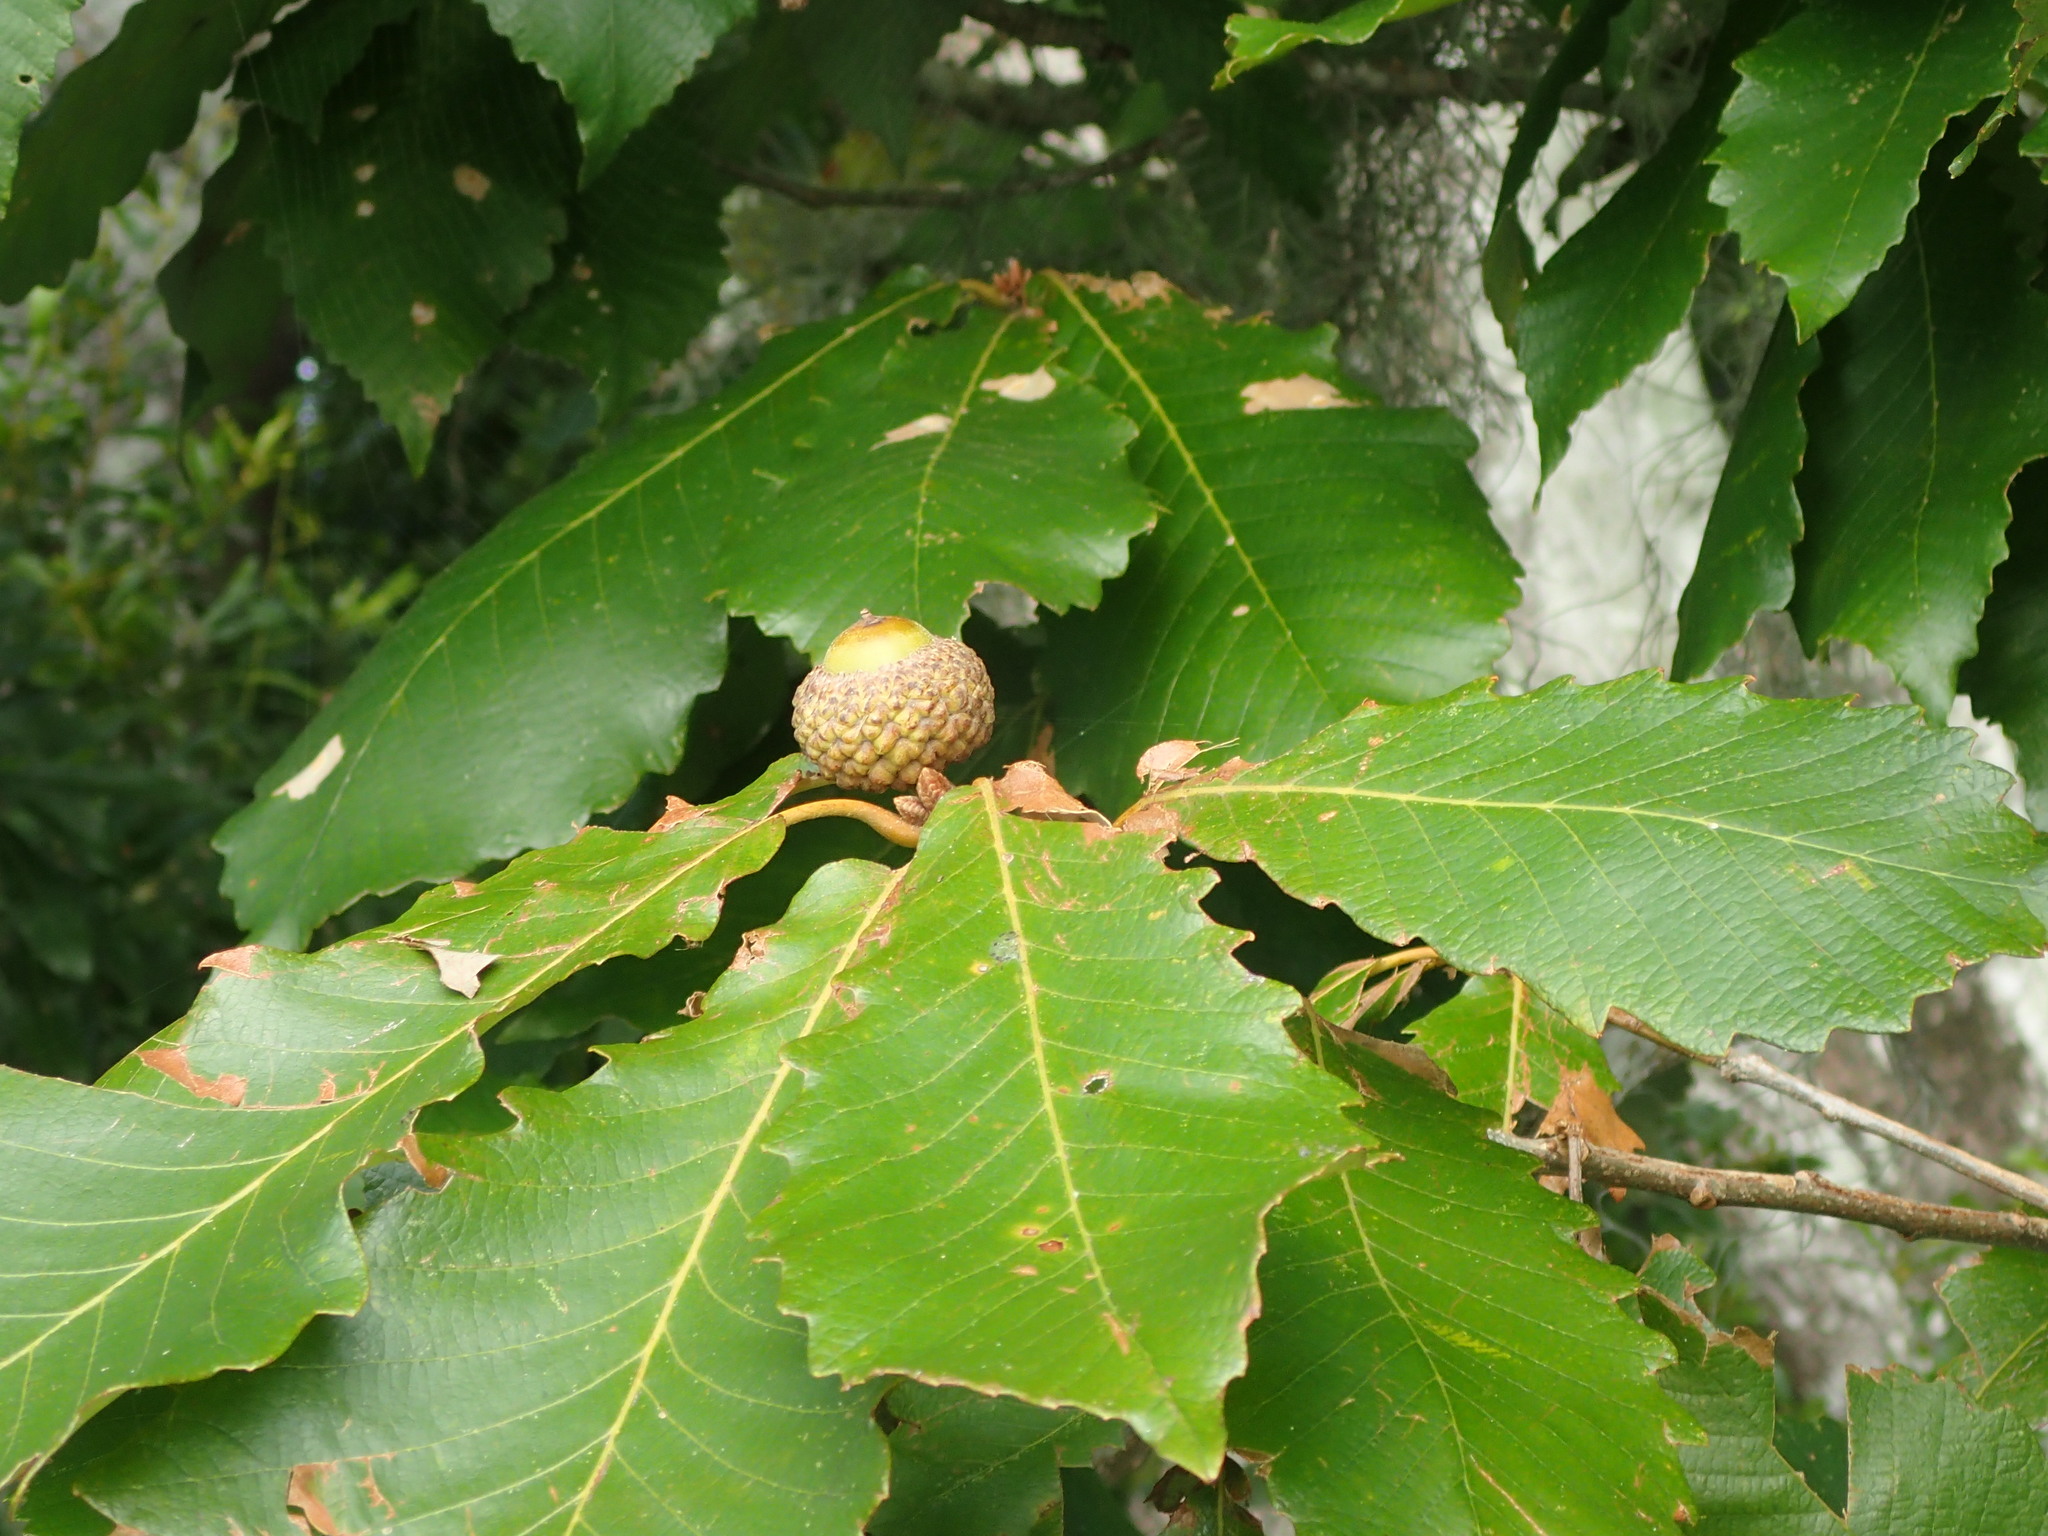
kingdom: Animalia
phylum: Arthropoda
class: Insecta
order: Lepidoptera
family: Tischeriidae
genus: Tischeria
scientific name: Tischeria quercitella
